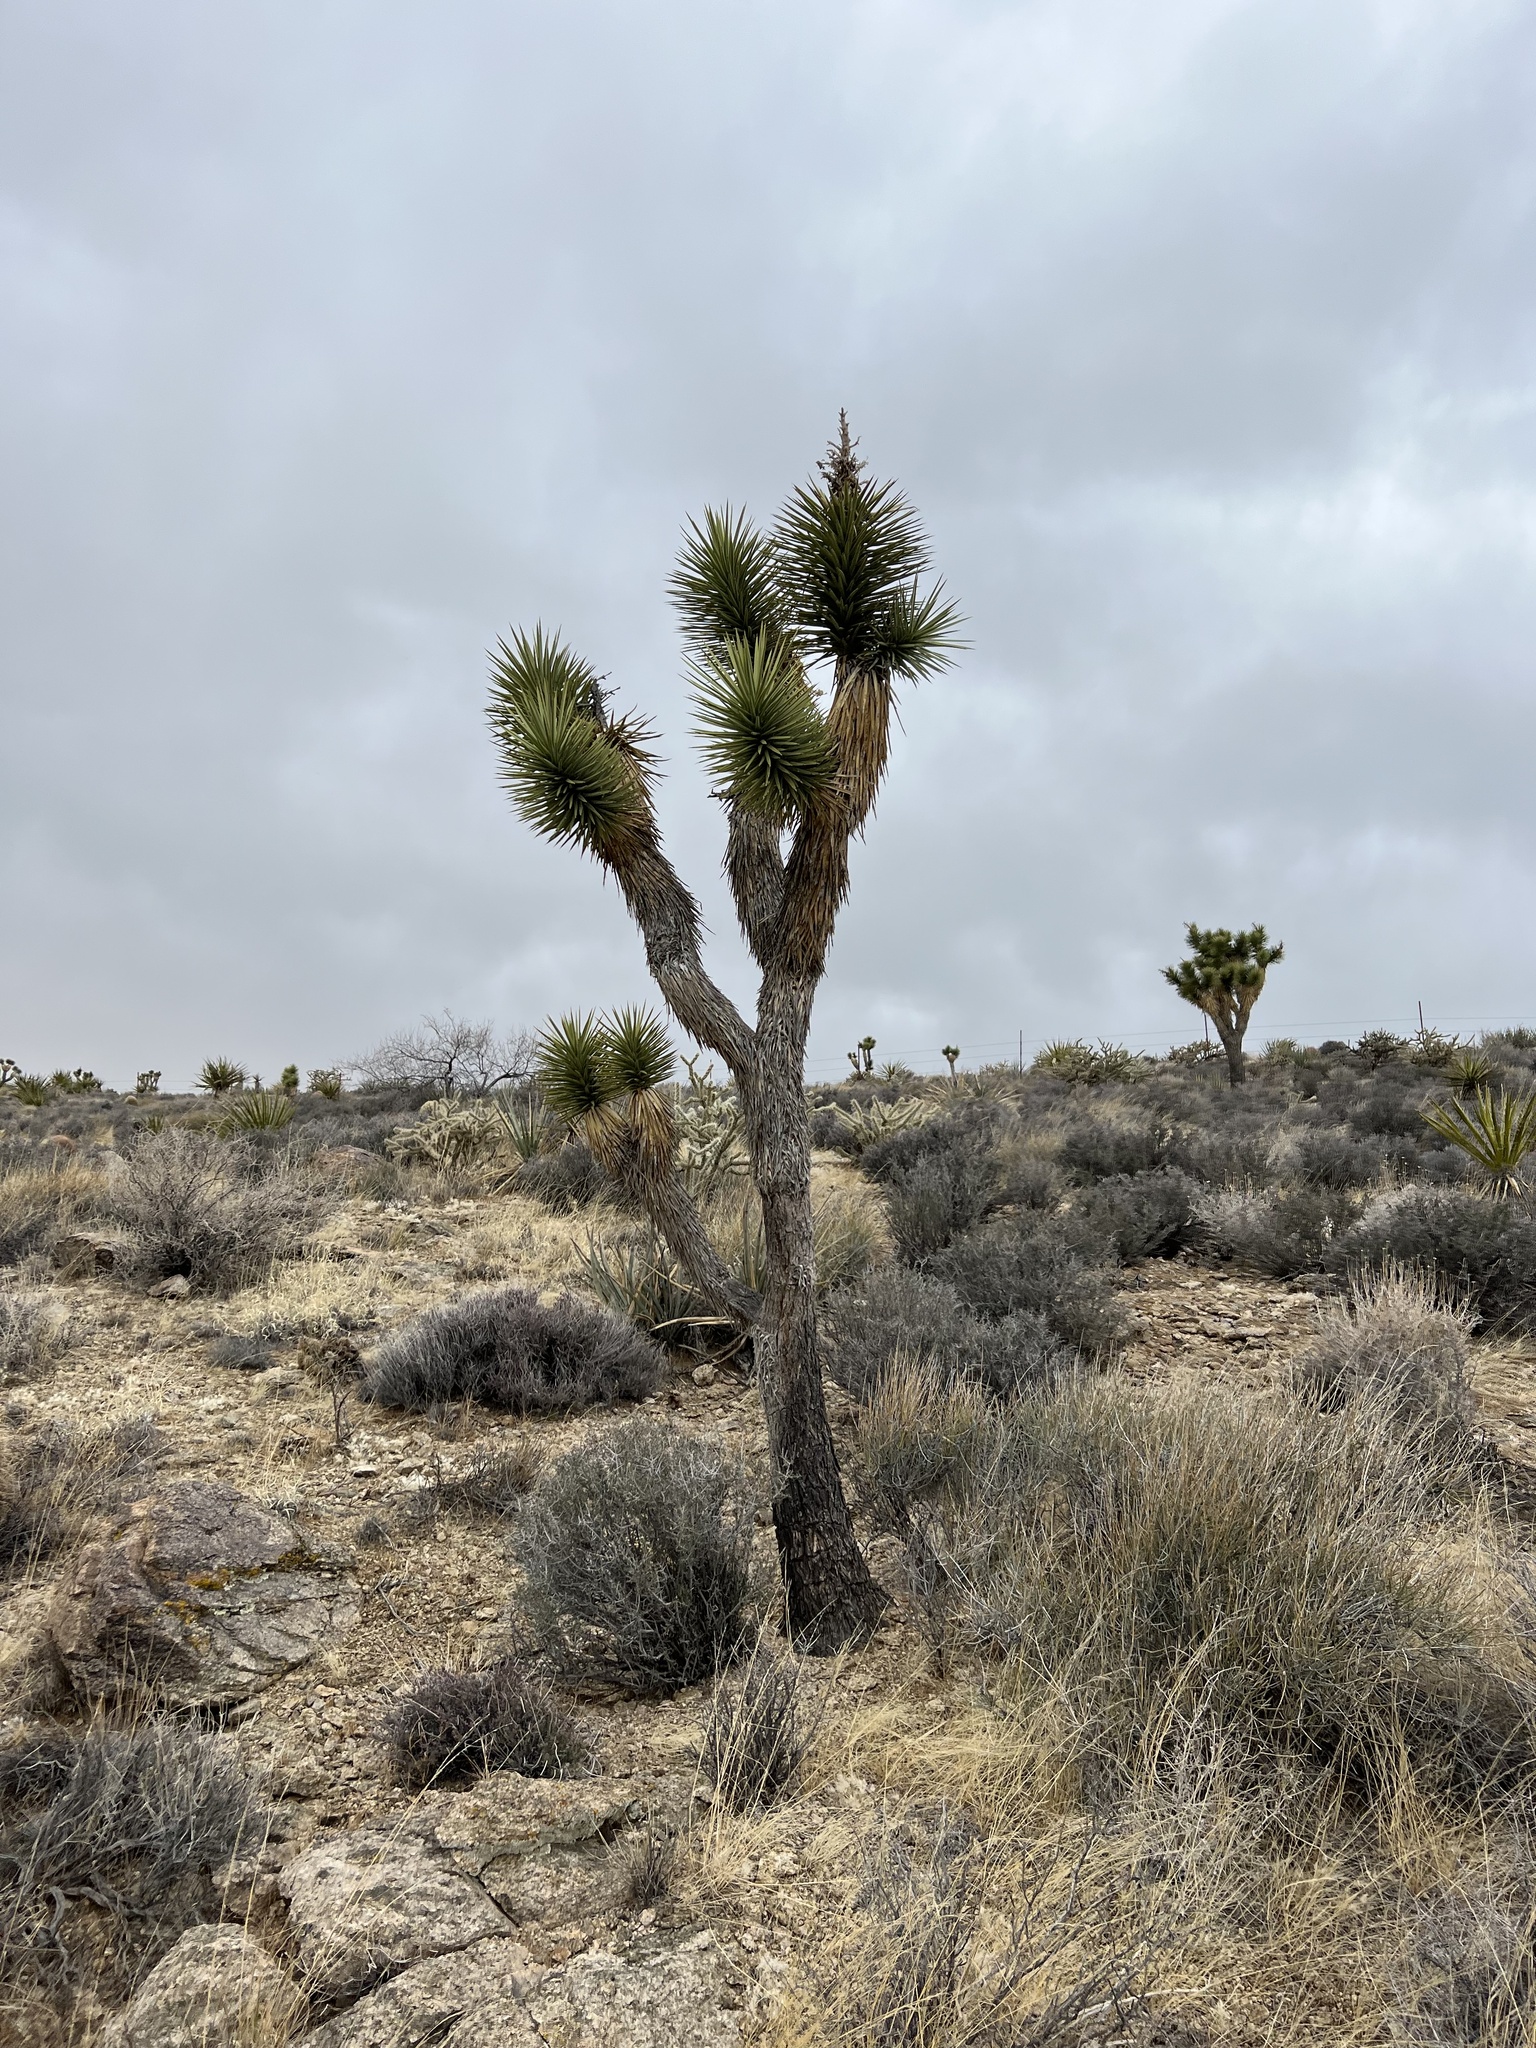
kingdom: Plantae
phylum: Tracheophyta
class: Liliopsida
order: Asparagales
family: Asparagaceae
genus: Yucca
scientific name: Yucca brevifolia
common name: Joshua tree
